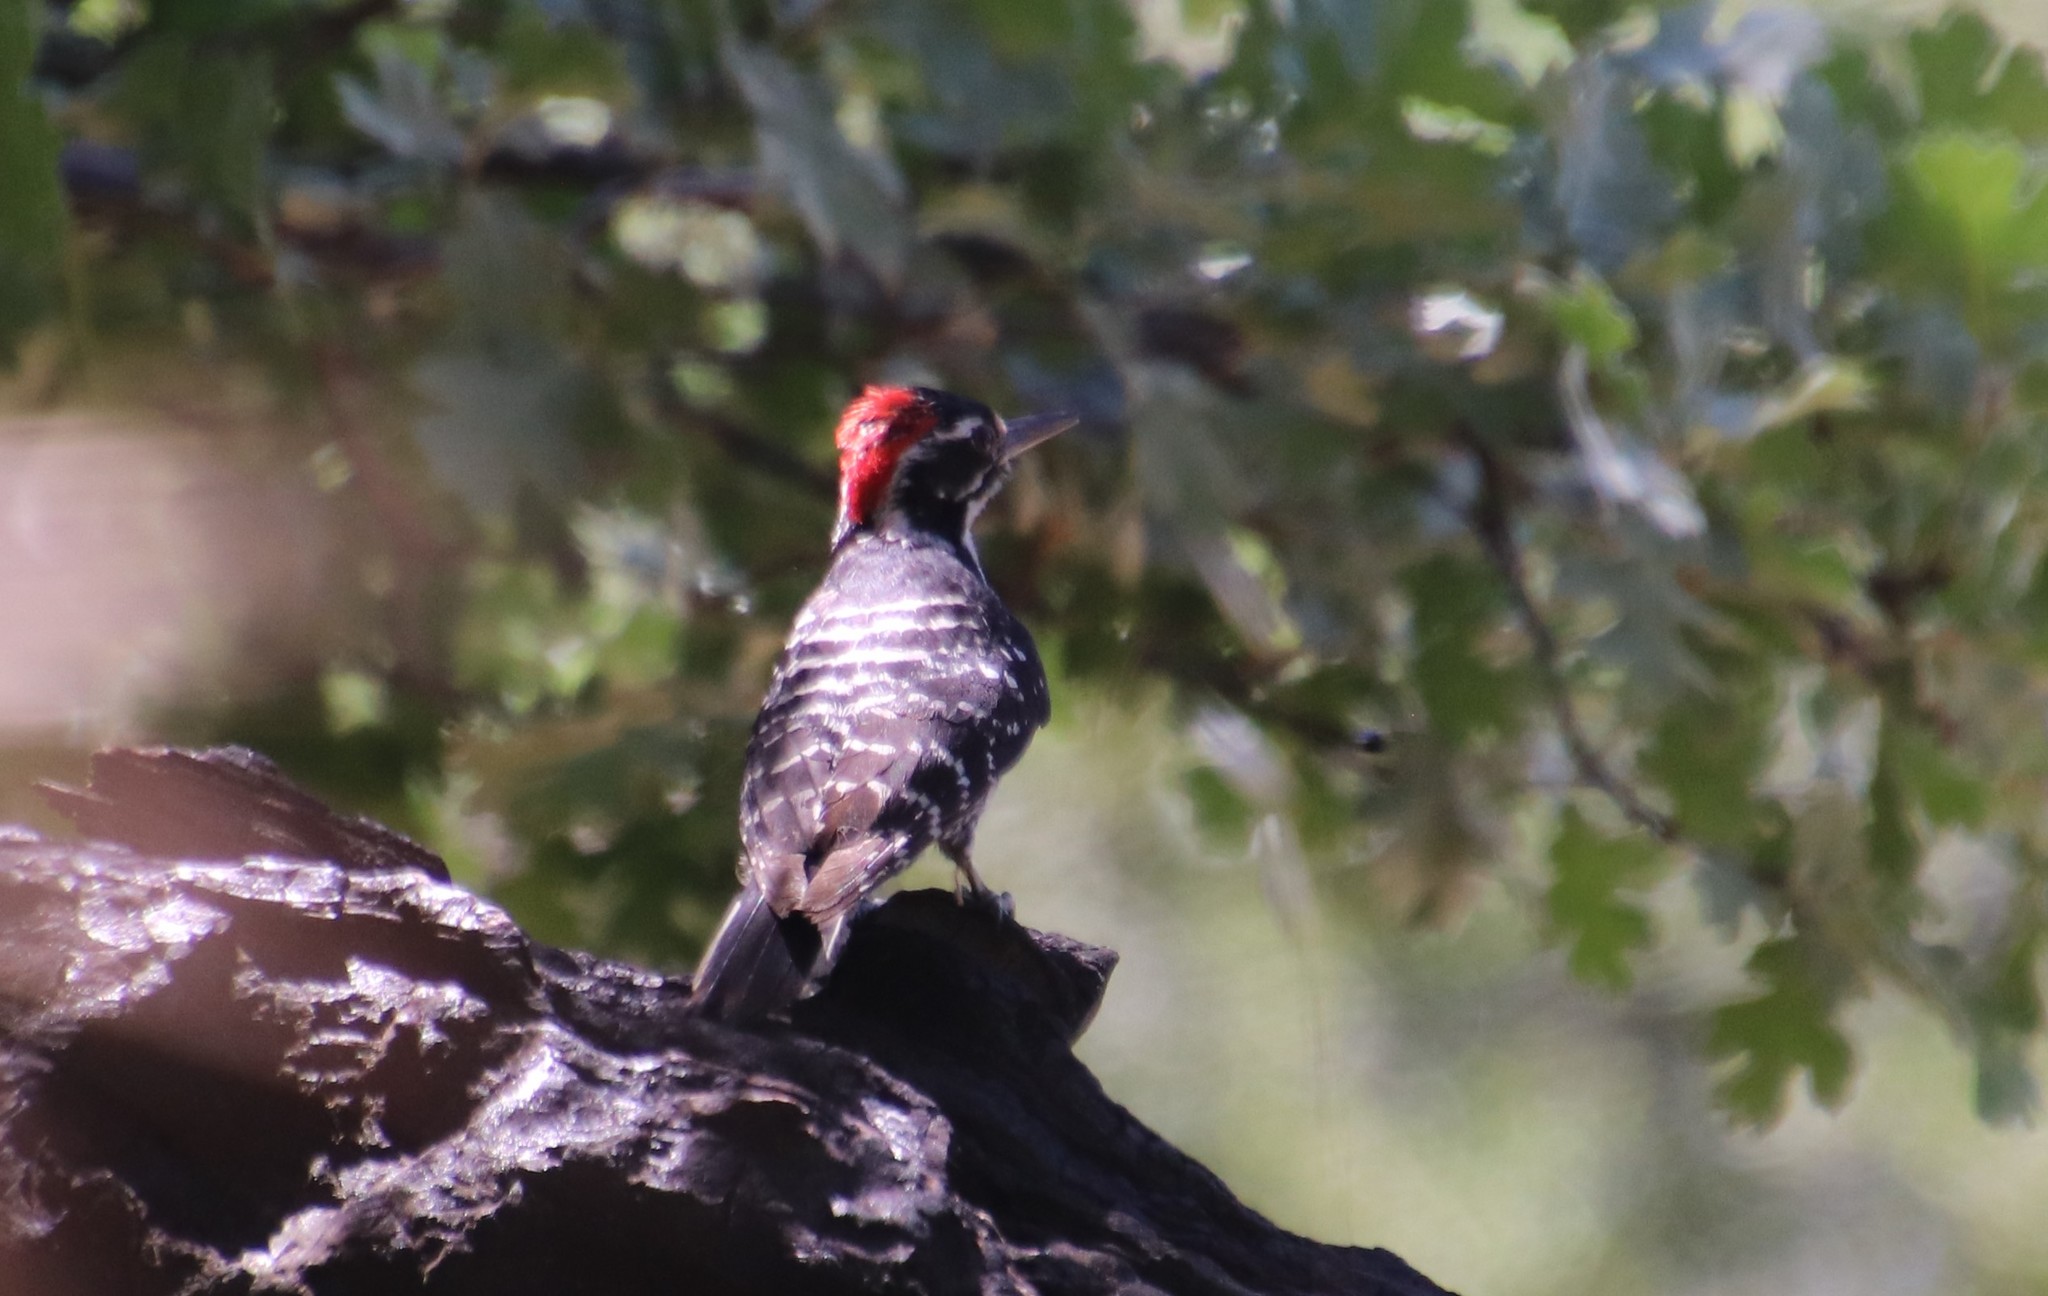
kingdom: Animalia
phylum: Chordata
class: Aves
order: Piciformes
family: Picidae
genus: Dryobates
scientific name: Dryobates nuttallii
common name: Nuttall's woodpecker
